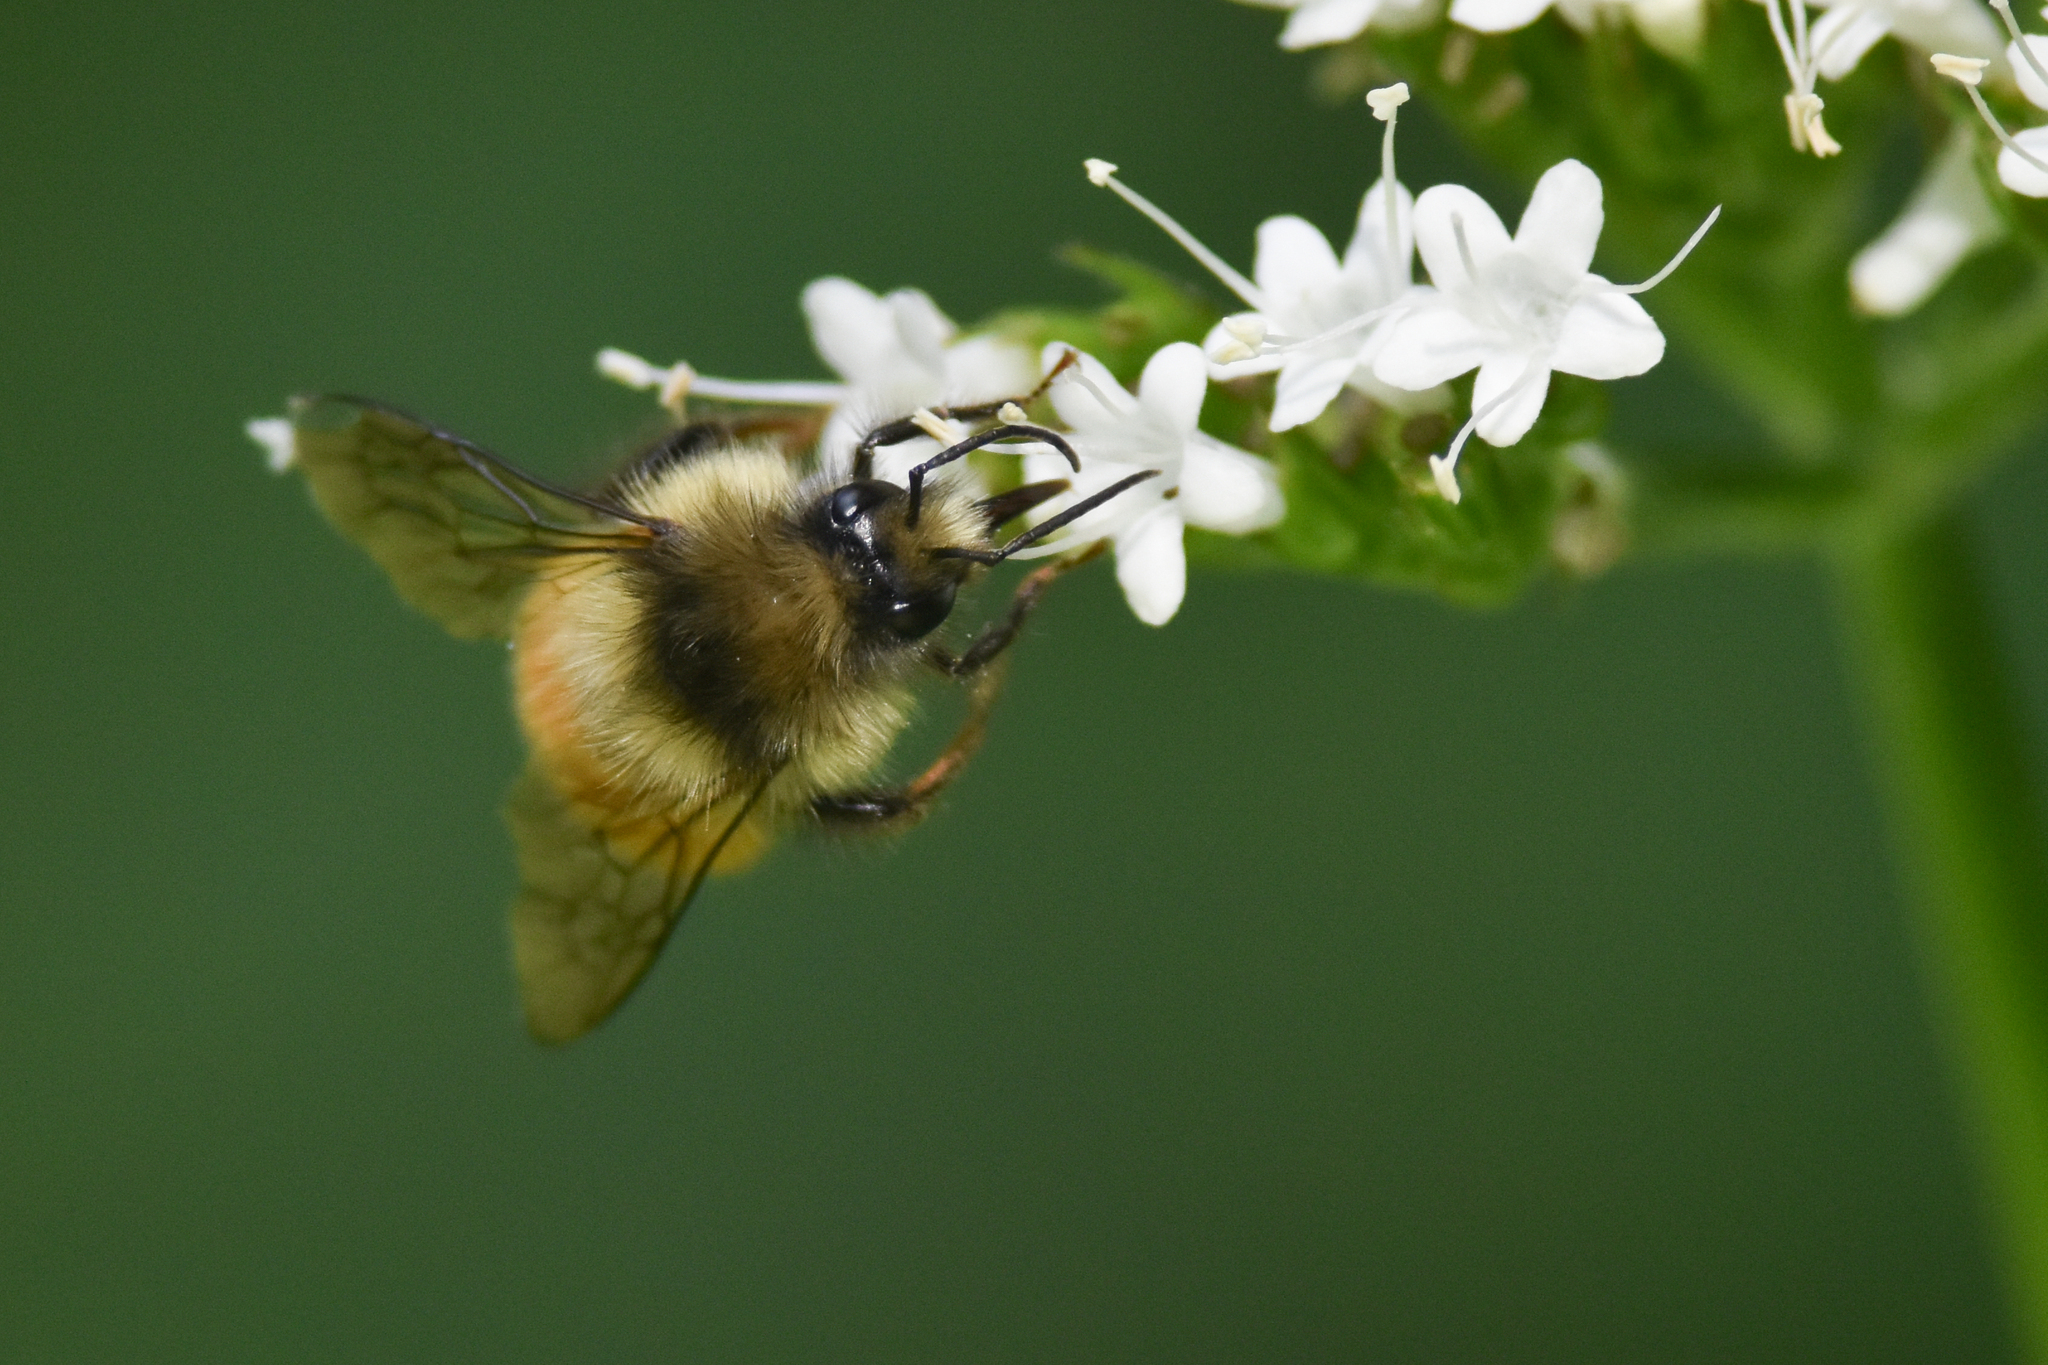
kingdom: Animalia
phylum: Arthropoda
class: Insecta
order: Hymenoptera
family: Apidae
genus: Bombus
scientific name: Bombus melanopygus
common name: Black tail bumble bee
